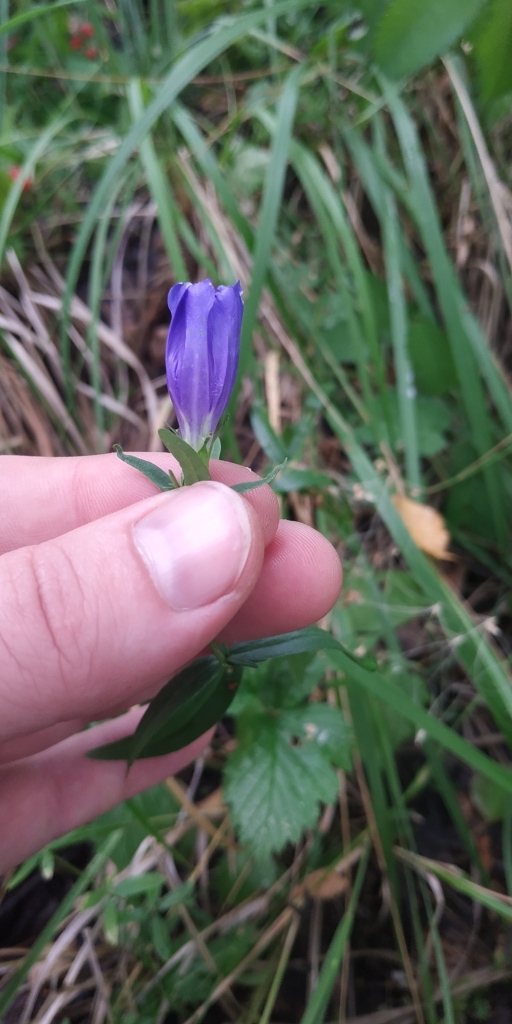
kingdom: Plantae
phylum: Tracheophyta
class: Magnoliopsida
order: Gentianales
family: Gentianaceae
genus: Gentiana
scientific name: Gentiana pneumonanthe
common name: Marsh gentian
